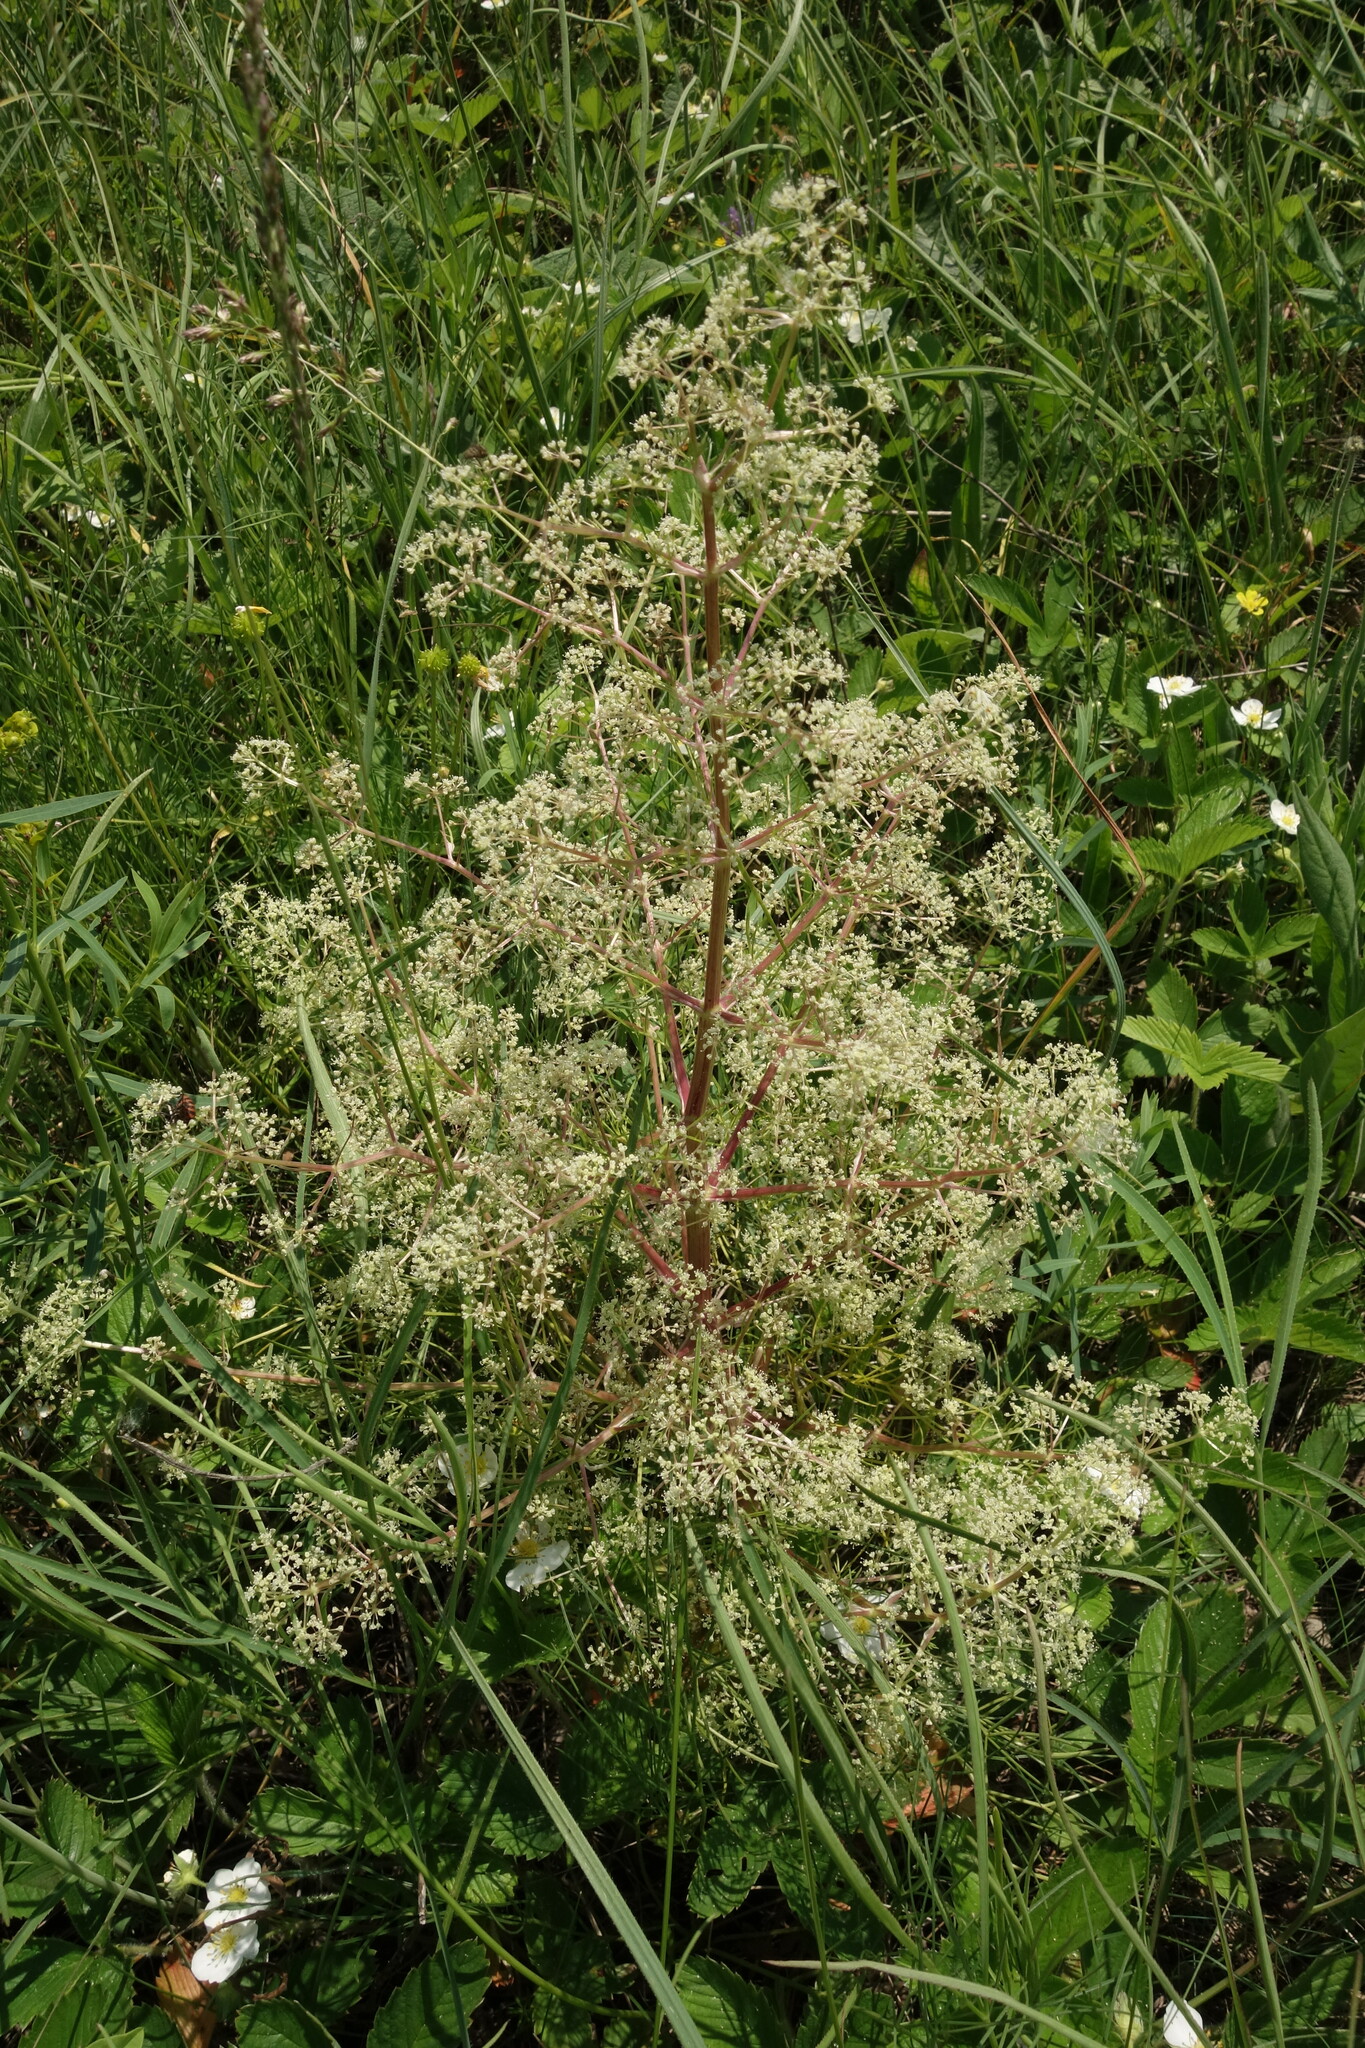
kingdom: Plantae
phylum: Tracheophyta
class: Magnoliopsida
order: Apiales
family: Apiaceae
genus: Trinia
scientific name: Trinia multicaulis
